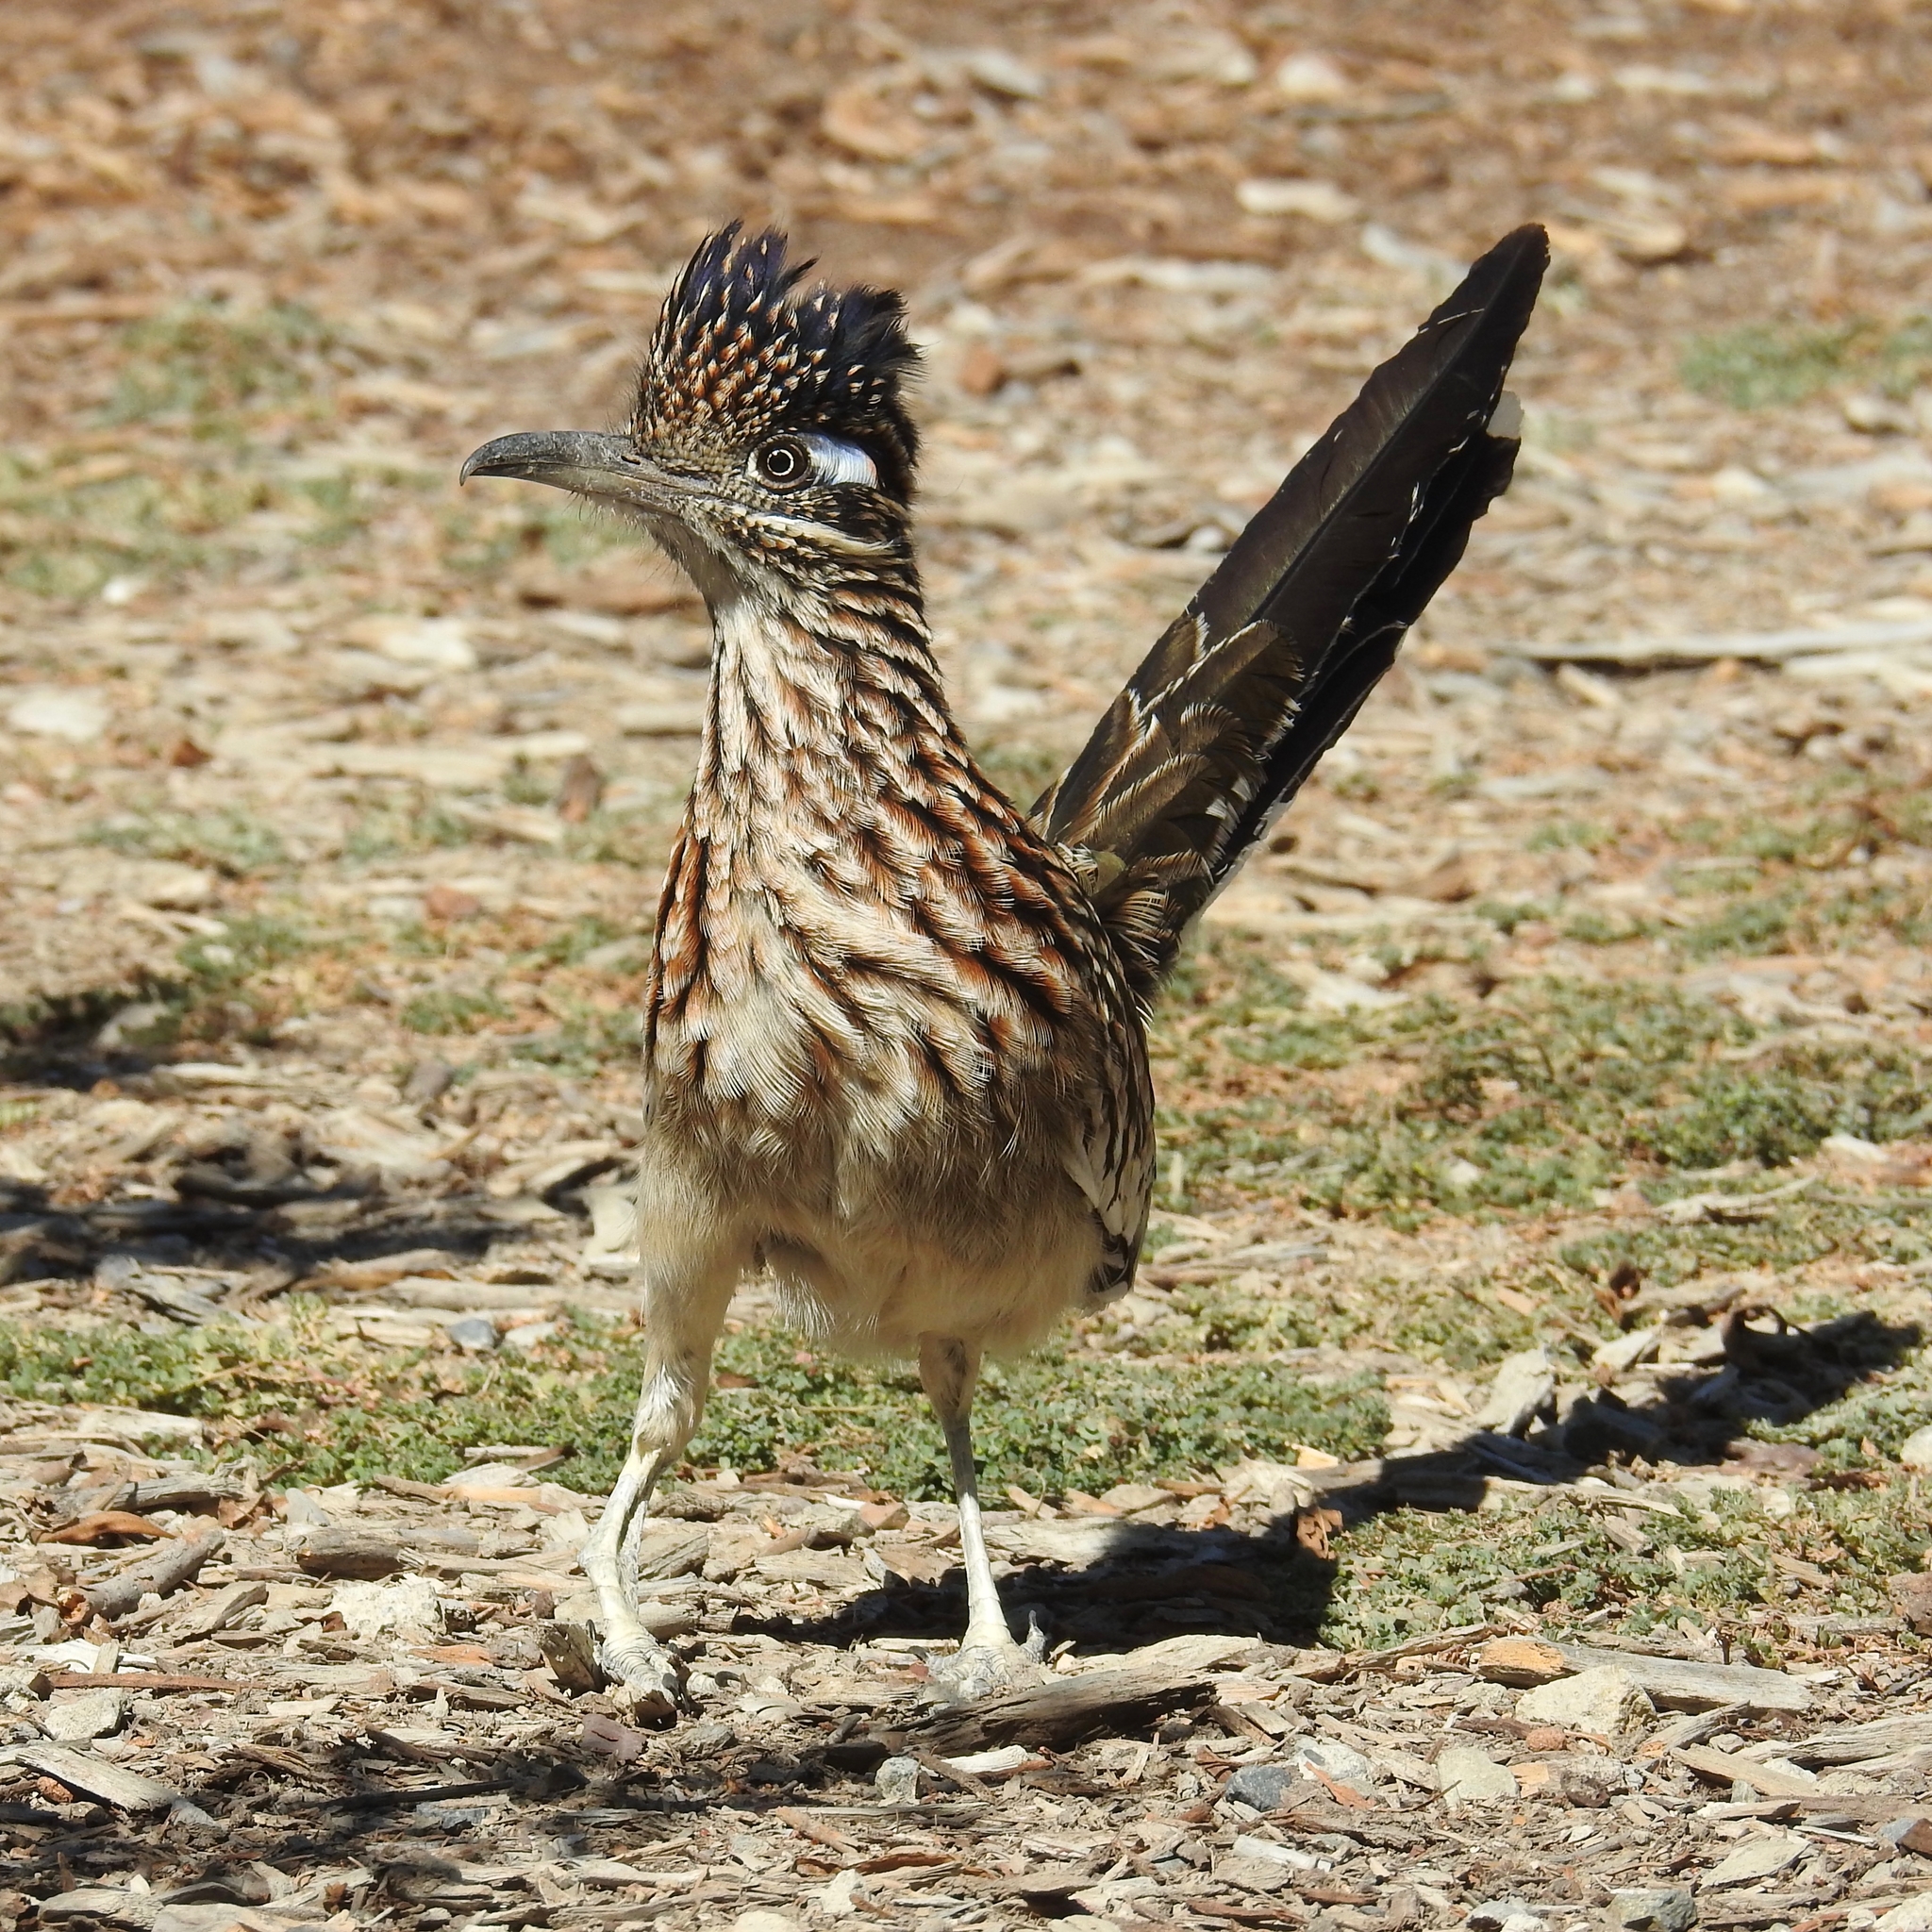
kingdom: Animalia
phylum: Chordata
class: Aves
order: Cuculiformes
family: Cuculidae
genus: Geococcyx
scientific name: Geococcyx californianus
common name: Greater roadrunner
